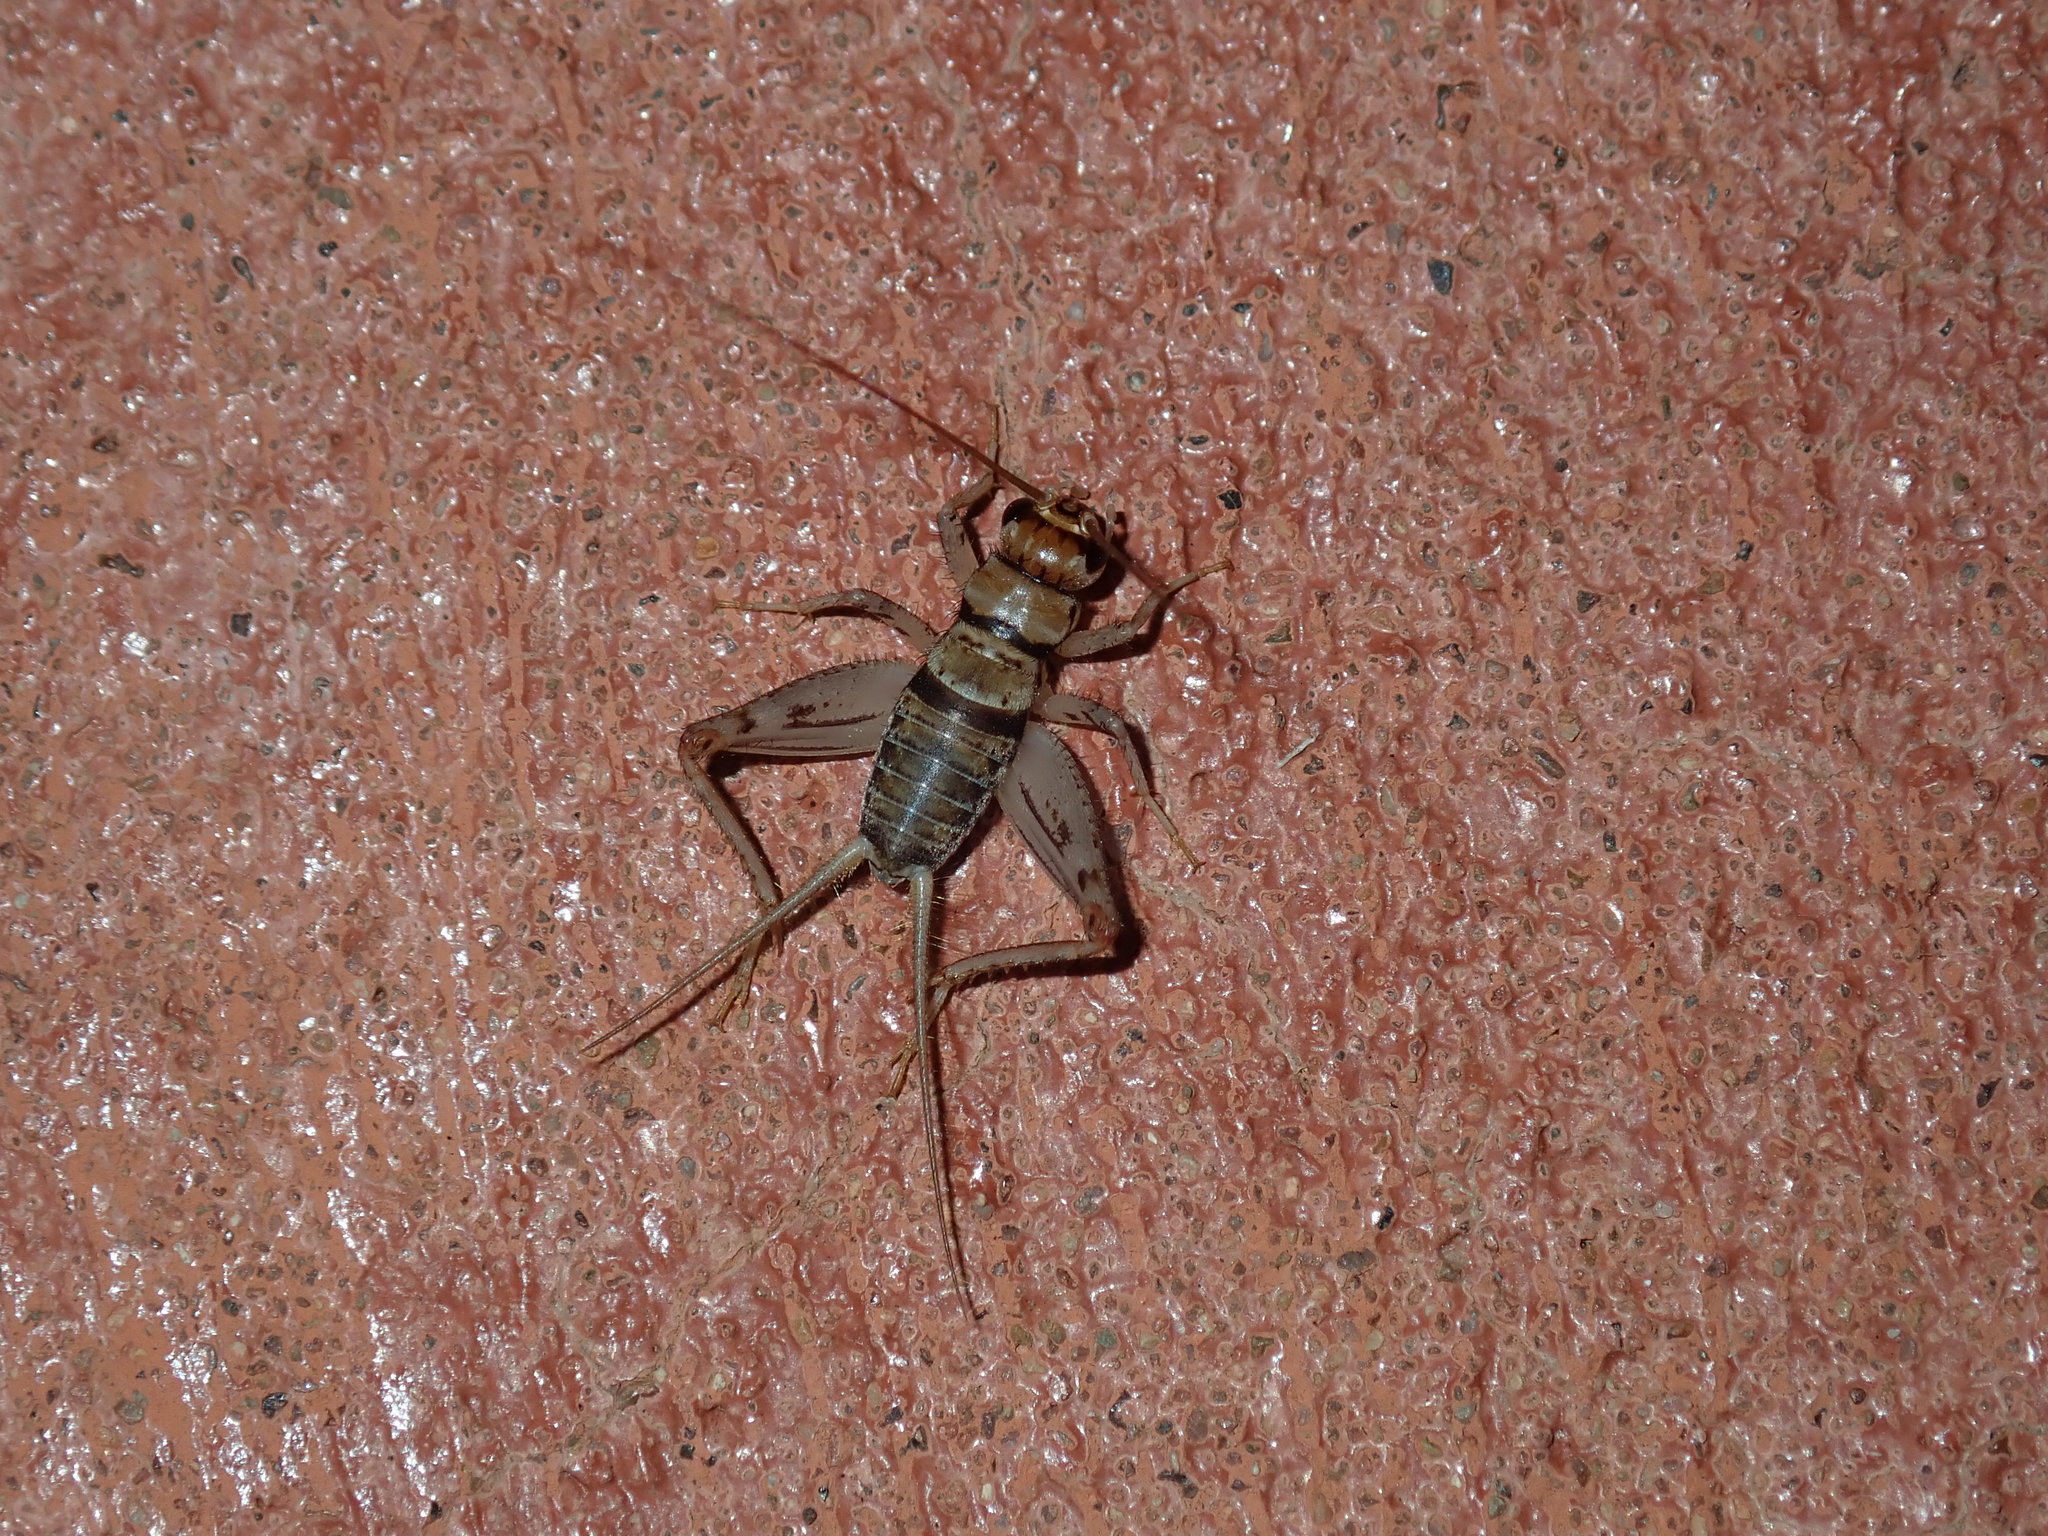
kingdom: Animalia
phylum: Arthropoda
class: Insecta
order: Orthoptera
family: Gryllidae
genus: Gryllodes
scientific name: Gryllodes sigillatus
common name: Tropical house cricket
